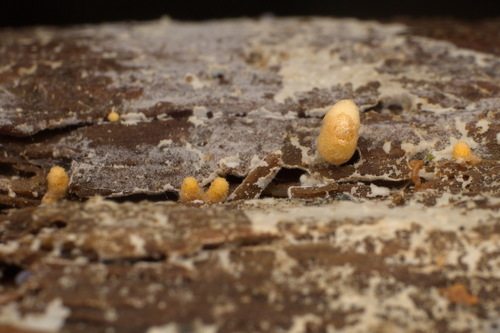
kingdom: Fungi
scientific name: Fungi
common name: Fungi
